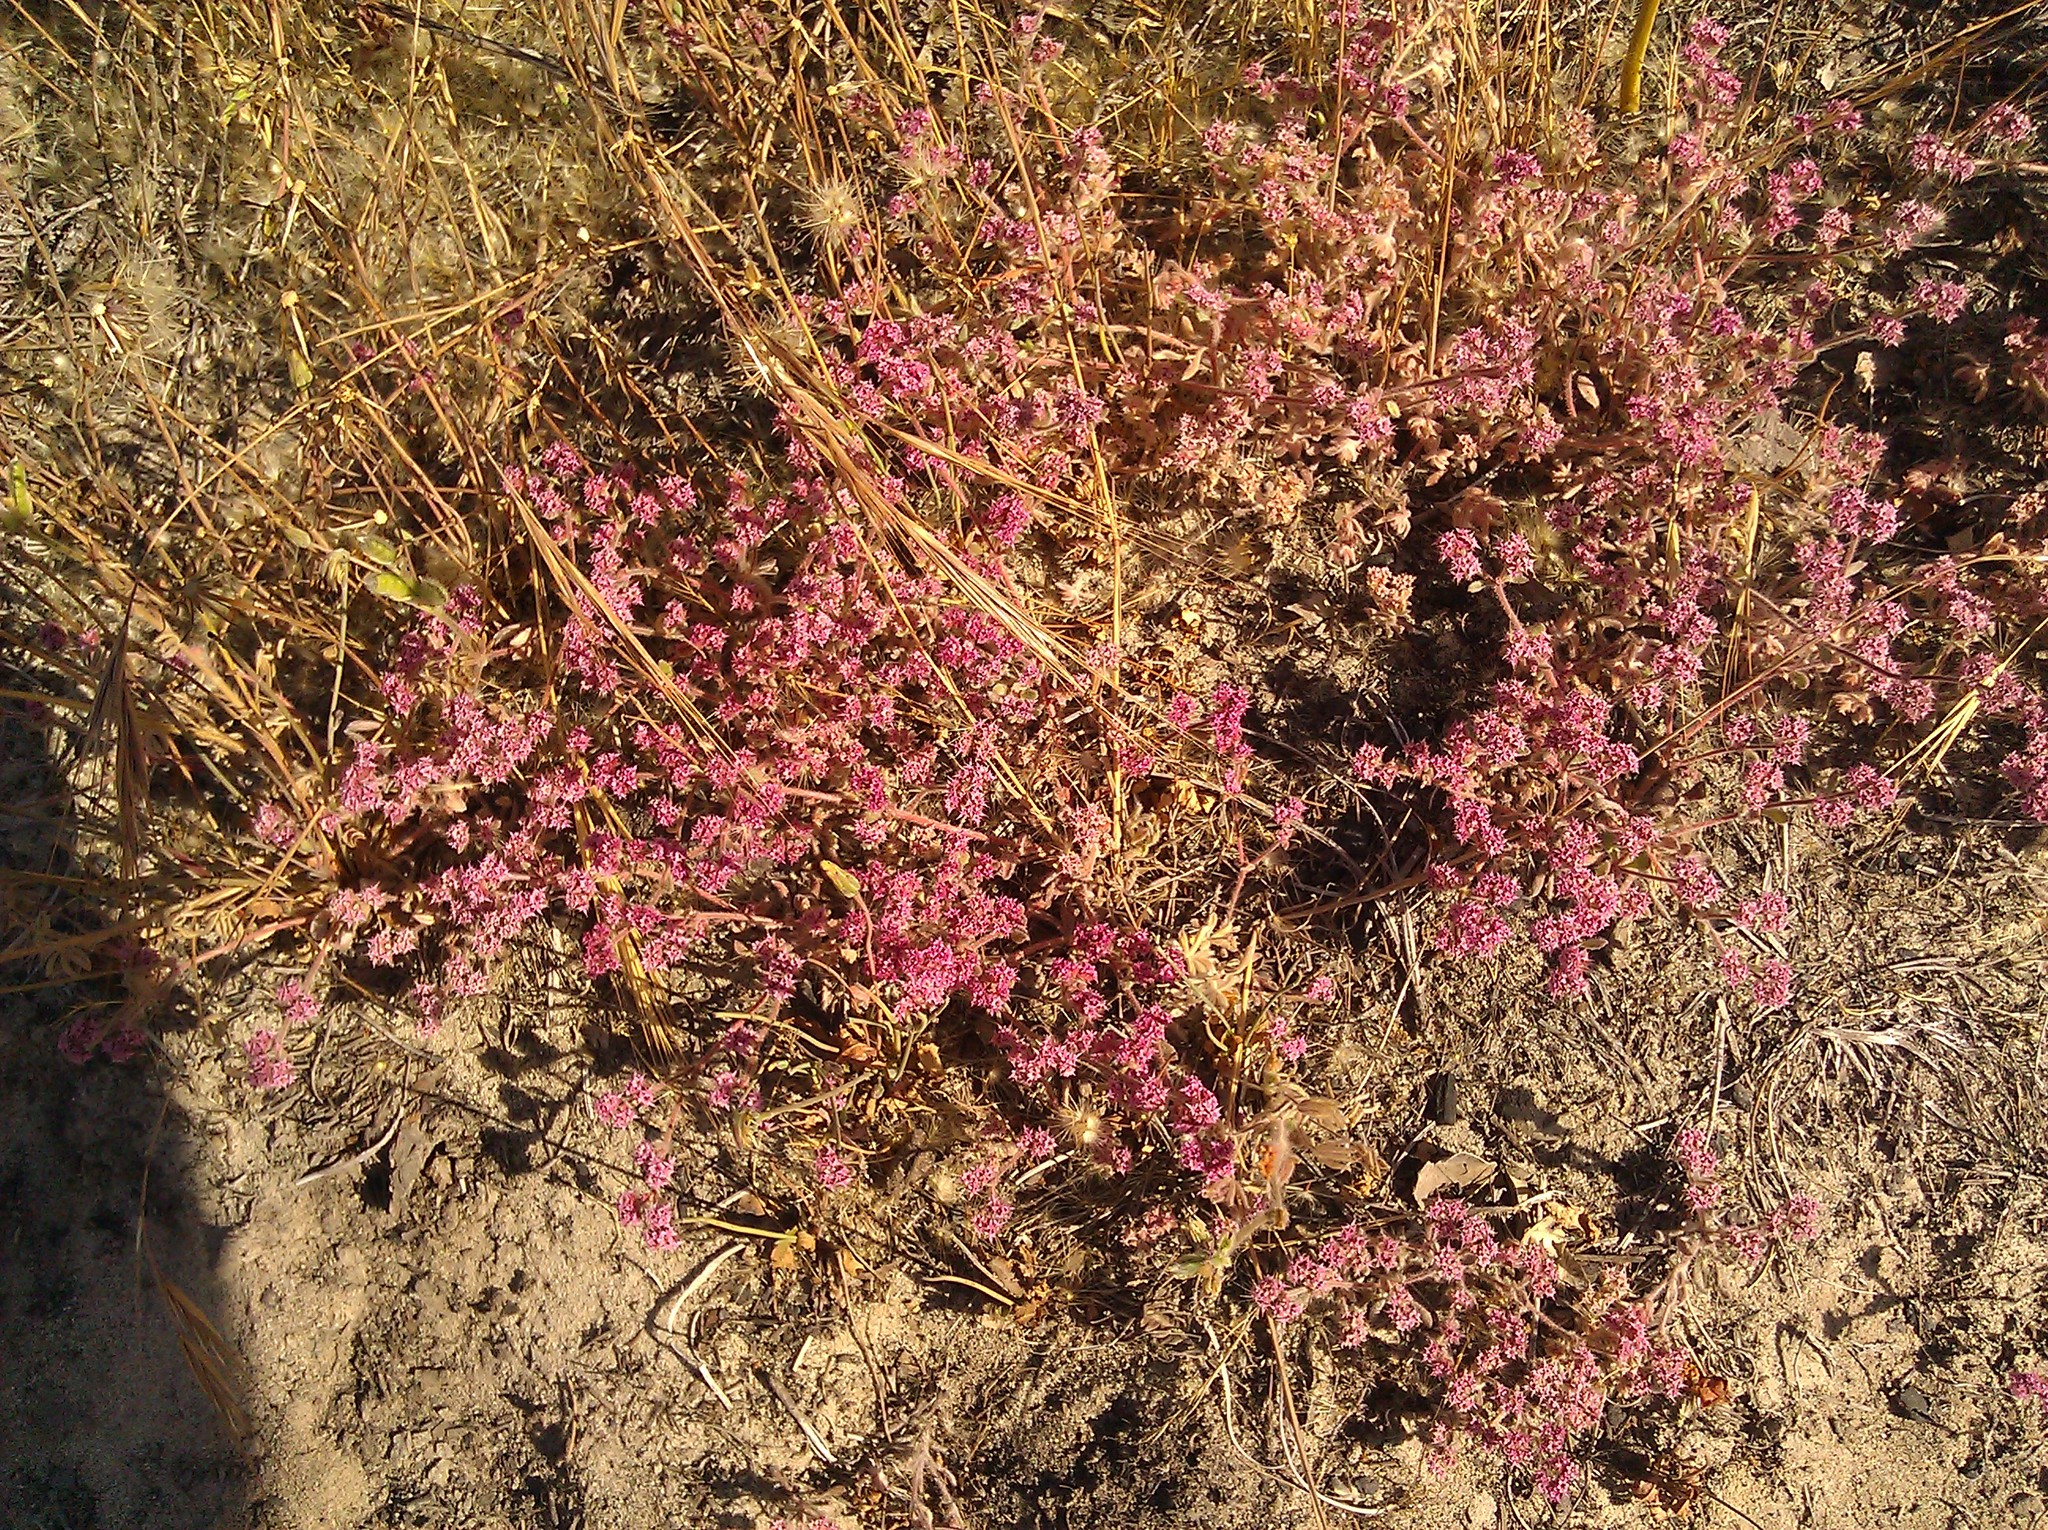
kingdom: Plantae
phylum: Tracheophyta
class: Magnoliopsida
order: Caryophyllales
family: Polygonaceae
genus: Chorizanthe
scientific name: Chorizanthe pungens
